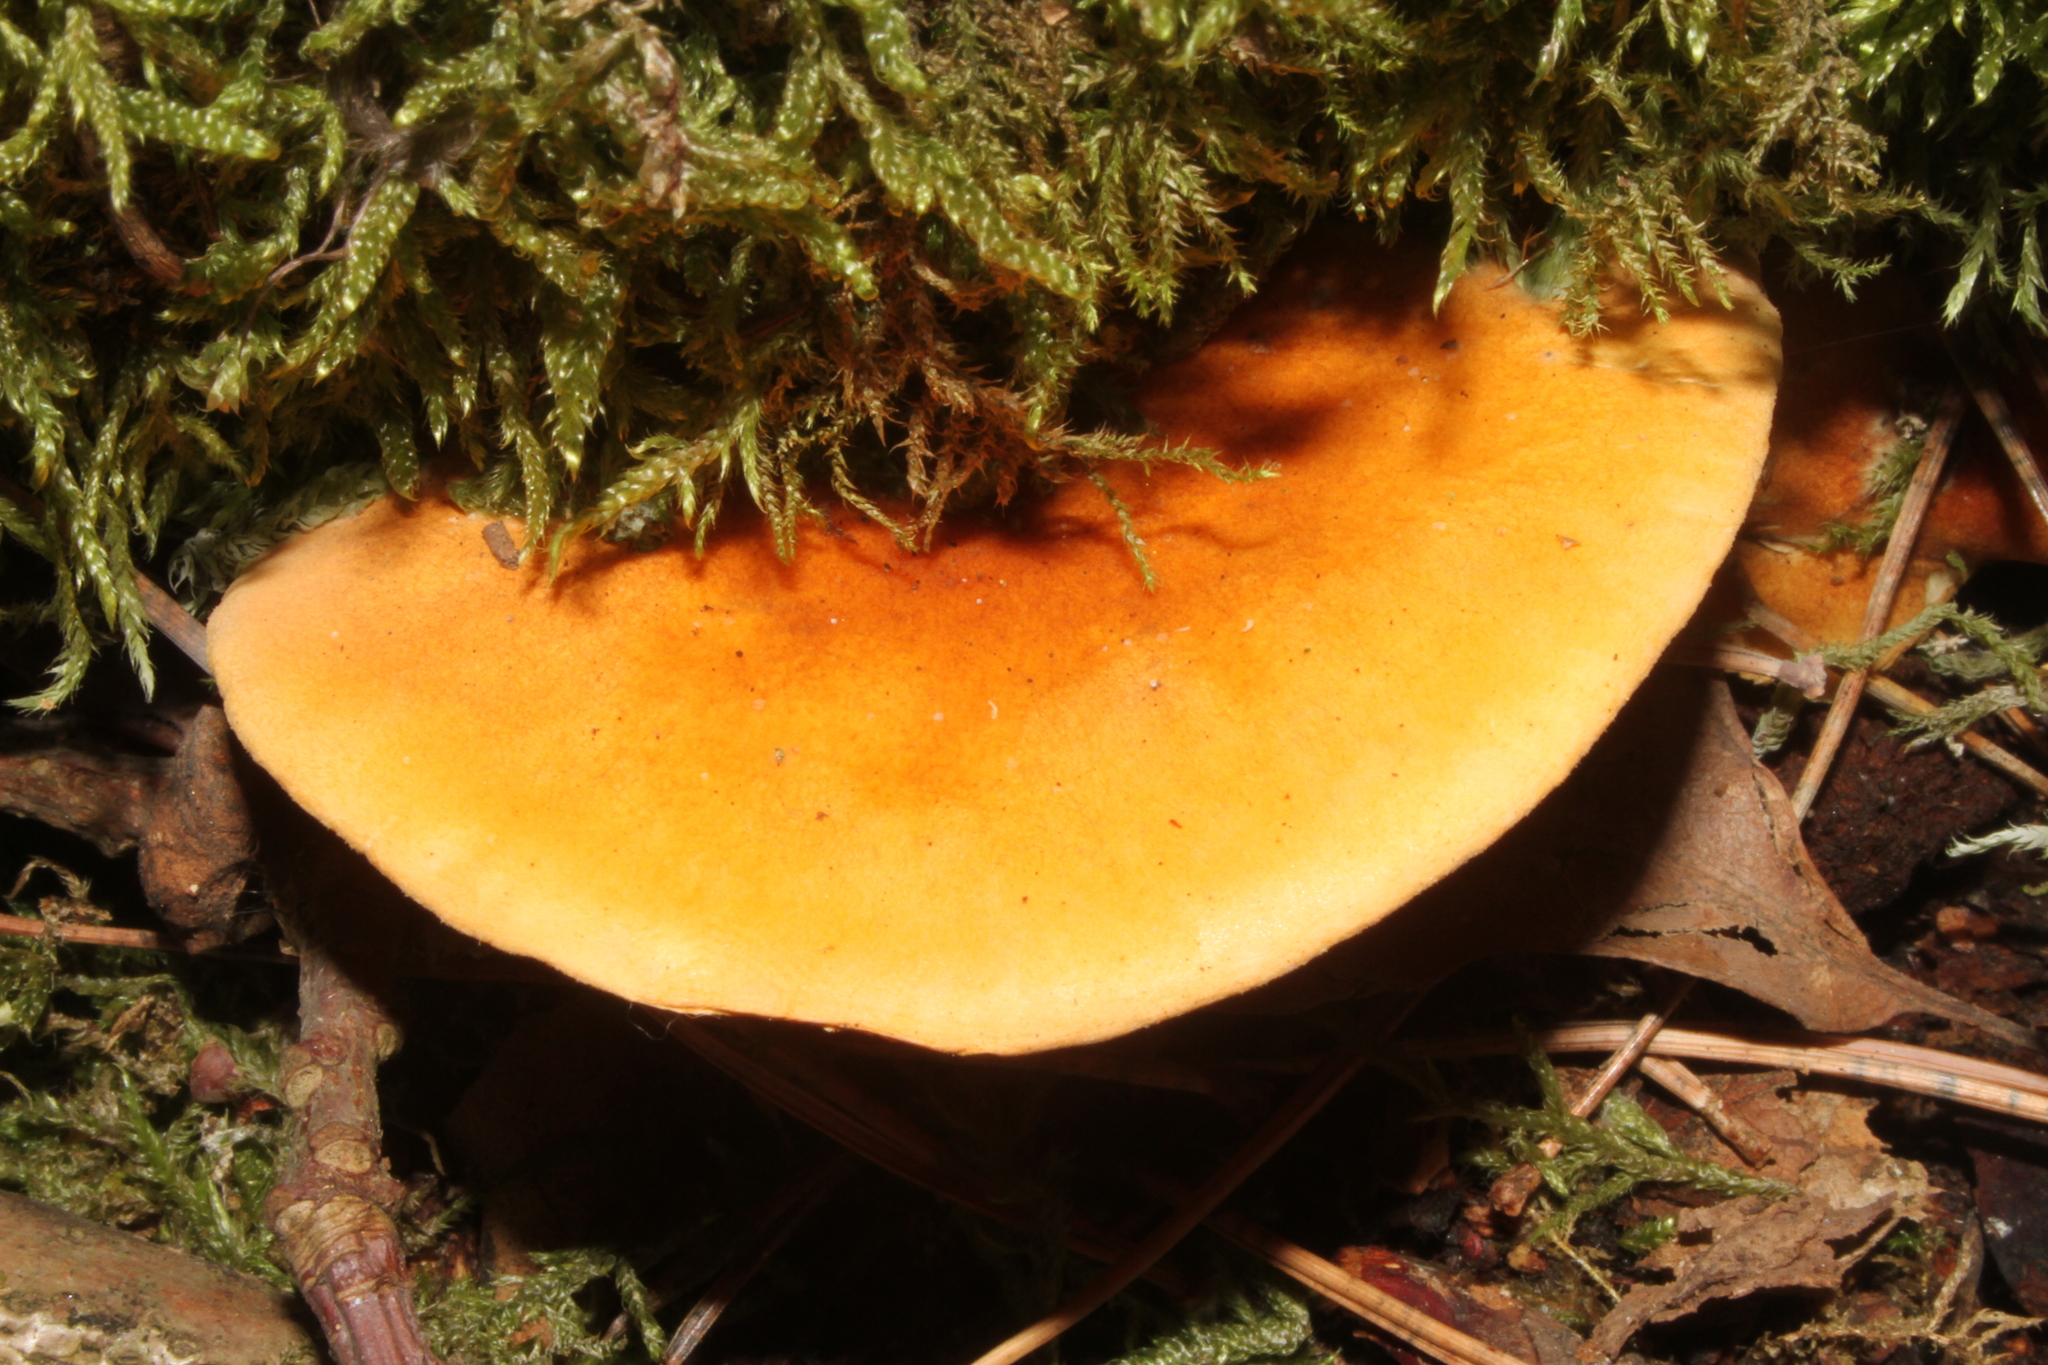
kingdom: Fungi
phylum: Basidiomycota
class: Agaricomycetes
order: Boletales
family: Hygrophoropsidaceae
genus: Hygrophoropsis
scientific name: Hygrophoropsis aurantiaca
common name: False chanterelle
